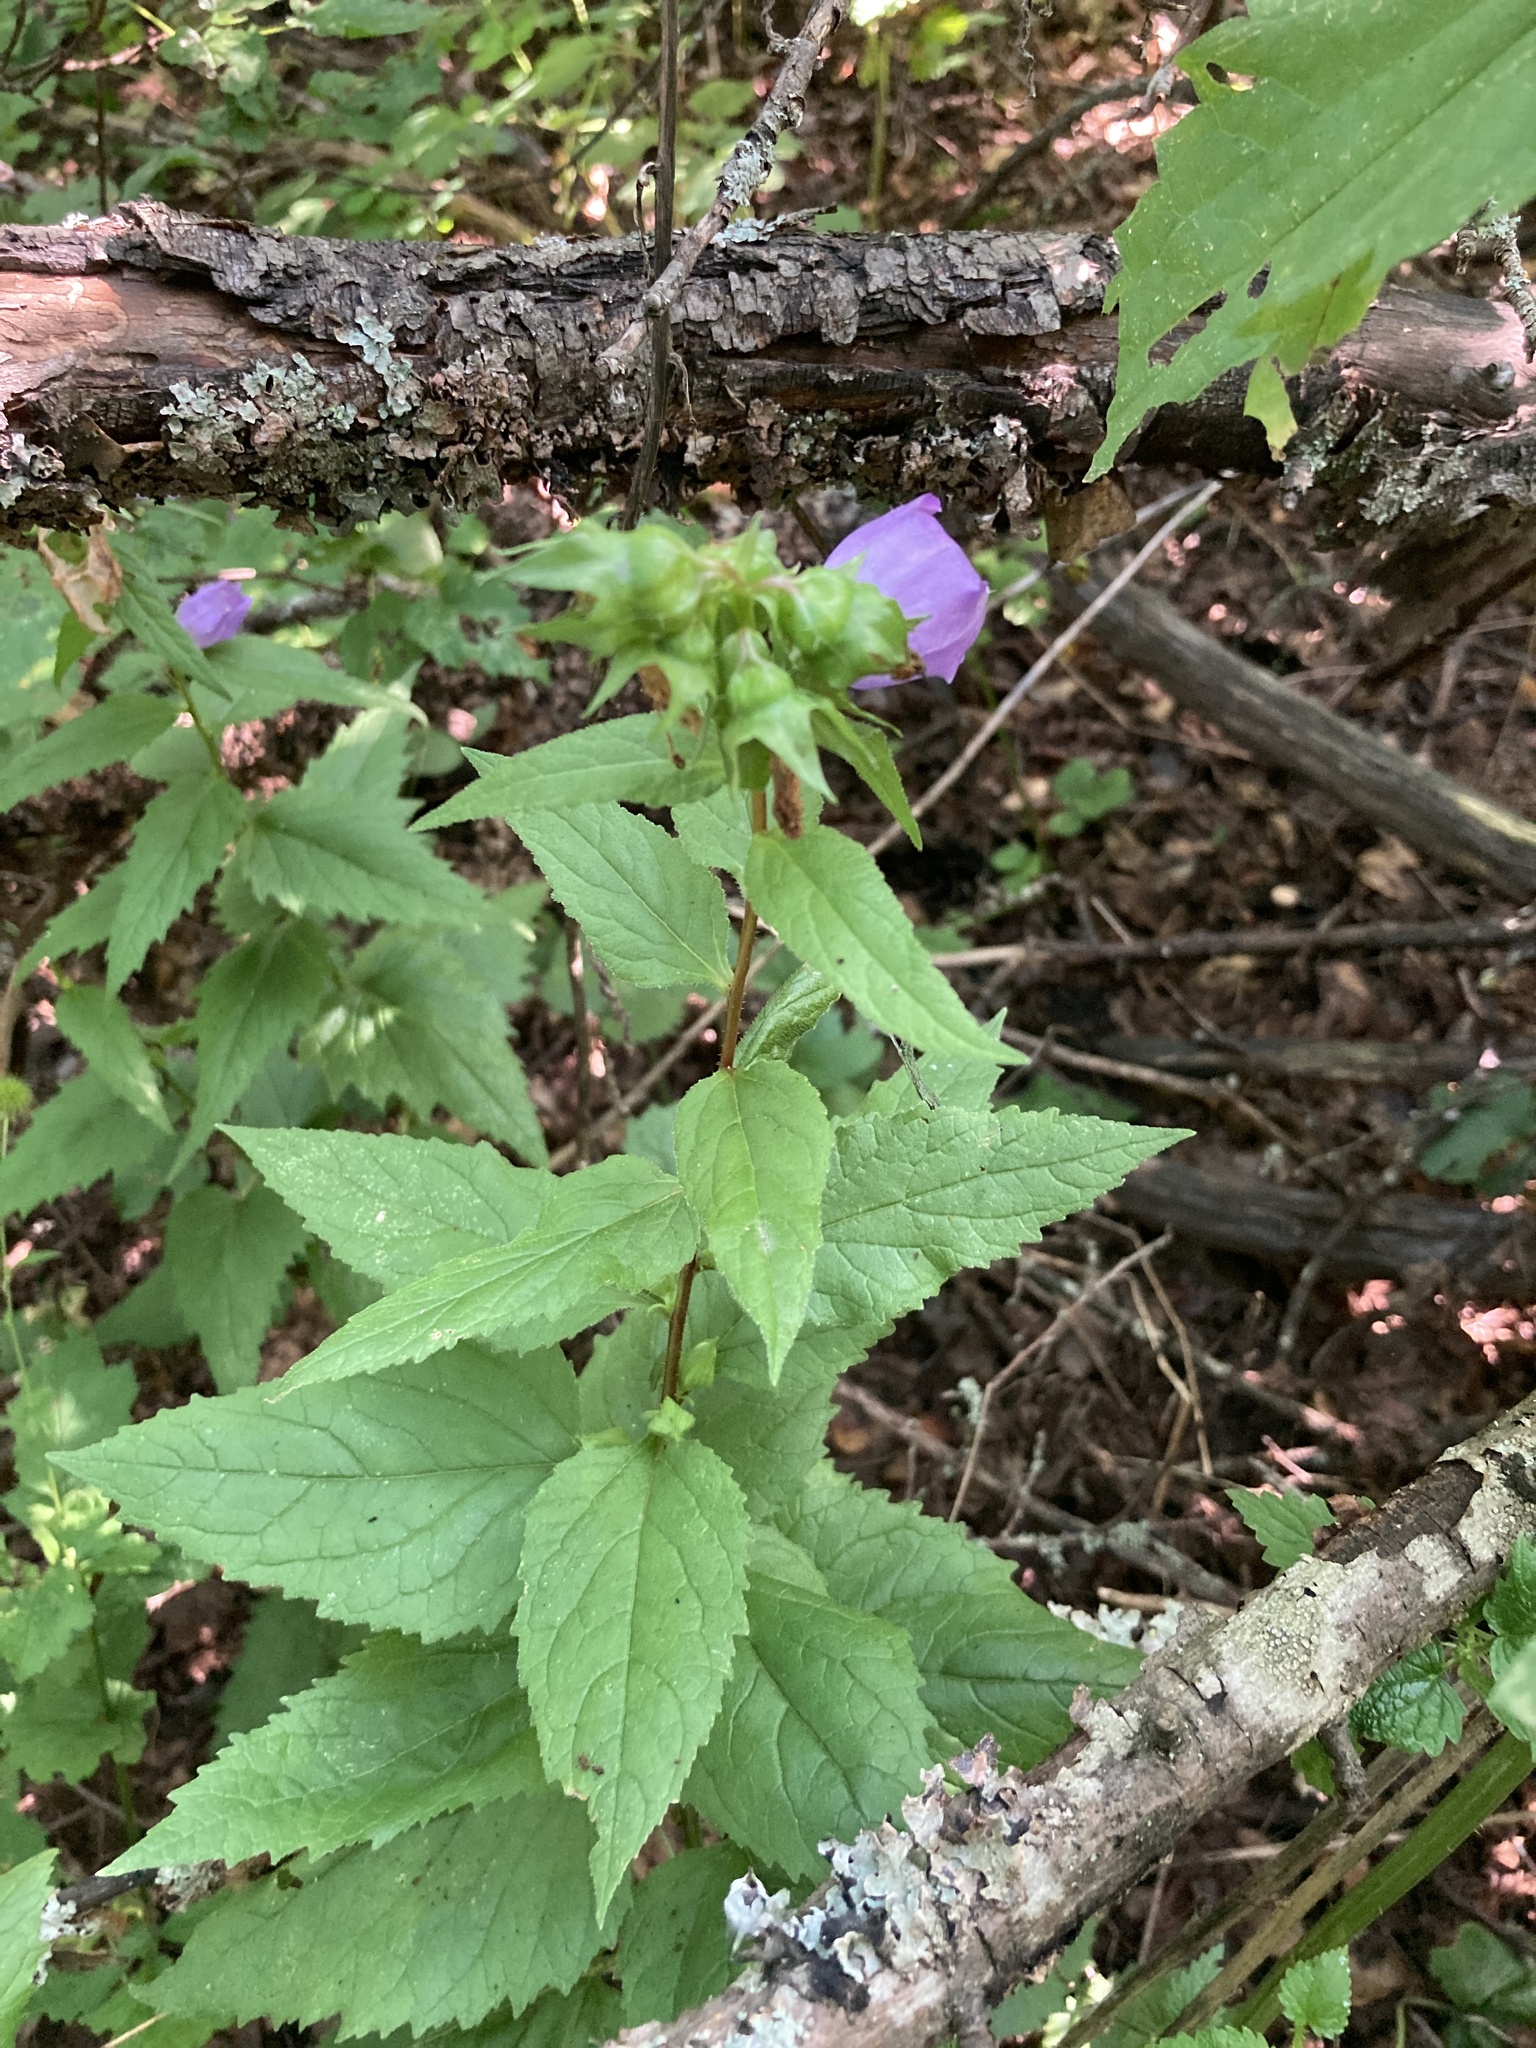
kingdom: Plantae
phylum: Tracheophyta
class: Magnoliopsida
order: Asterales
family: Campanulaceae
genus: Campanula
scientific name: Campanula trachelium
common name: Nettle-leaved bellflower
